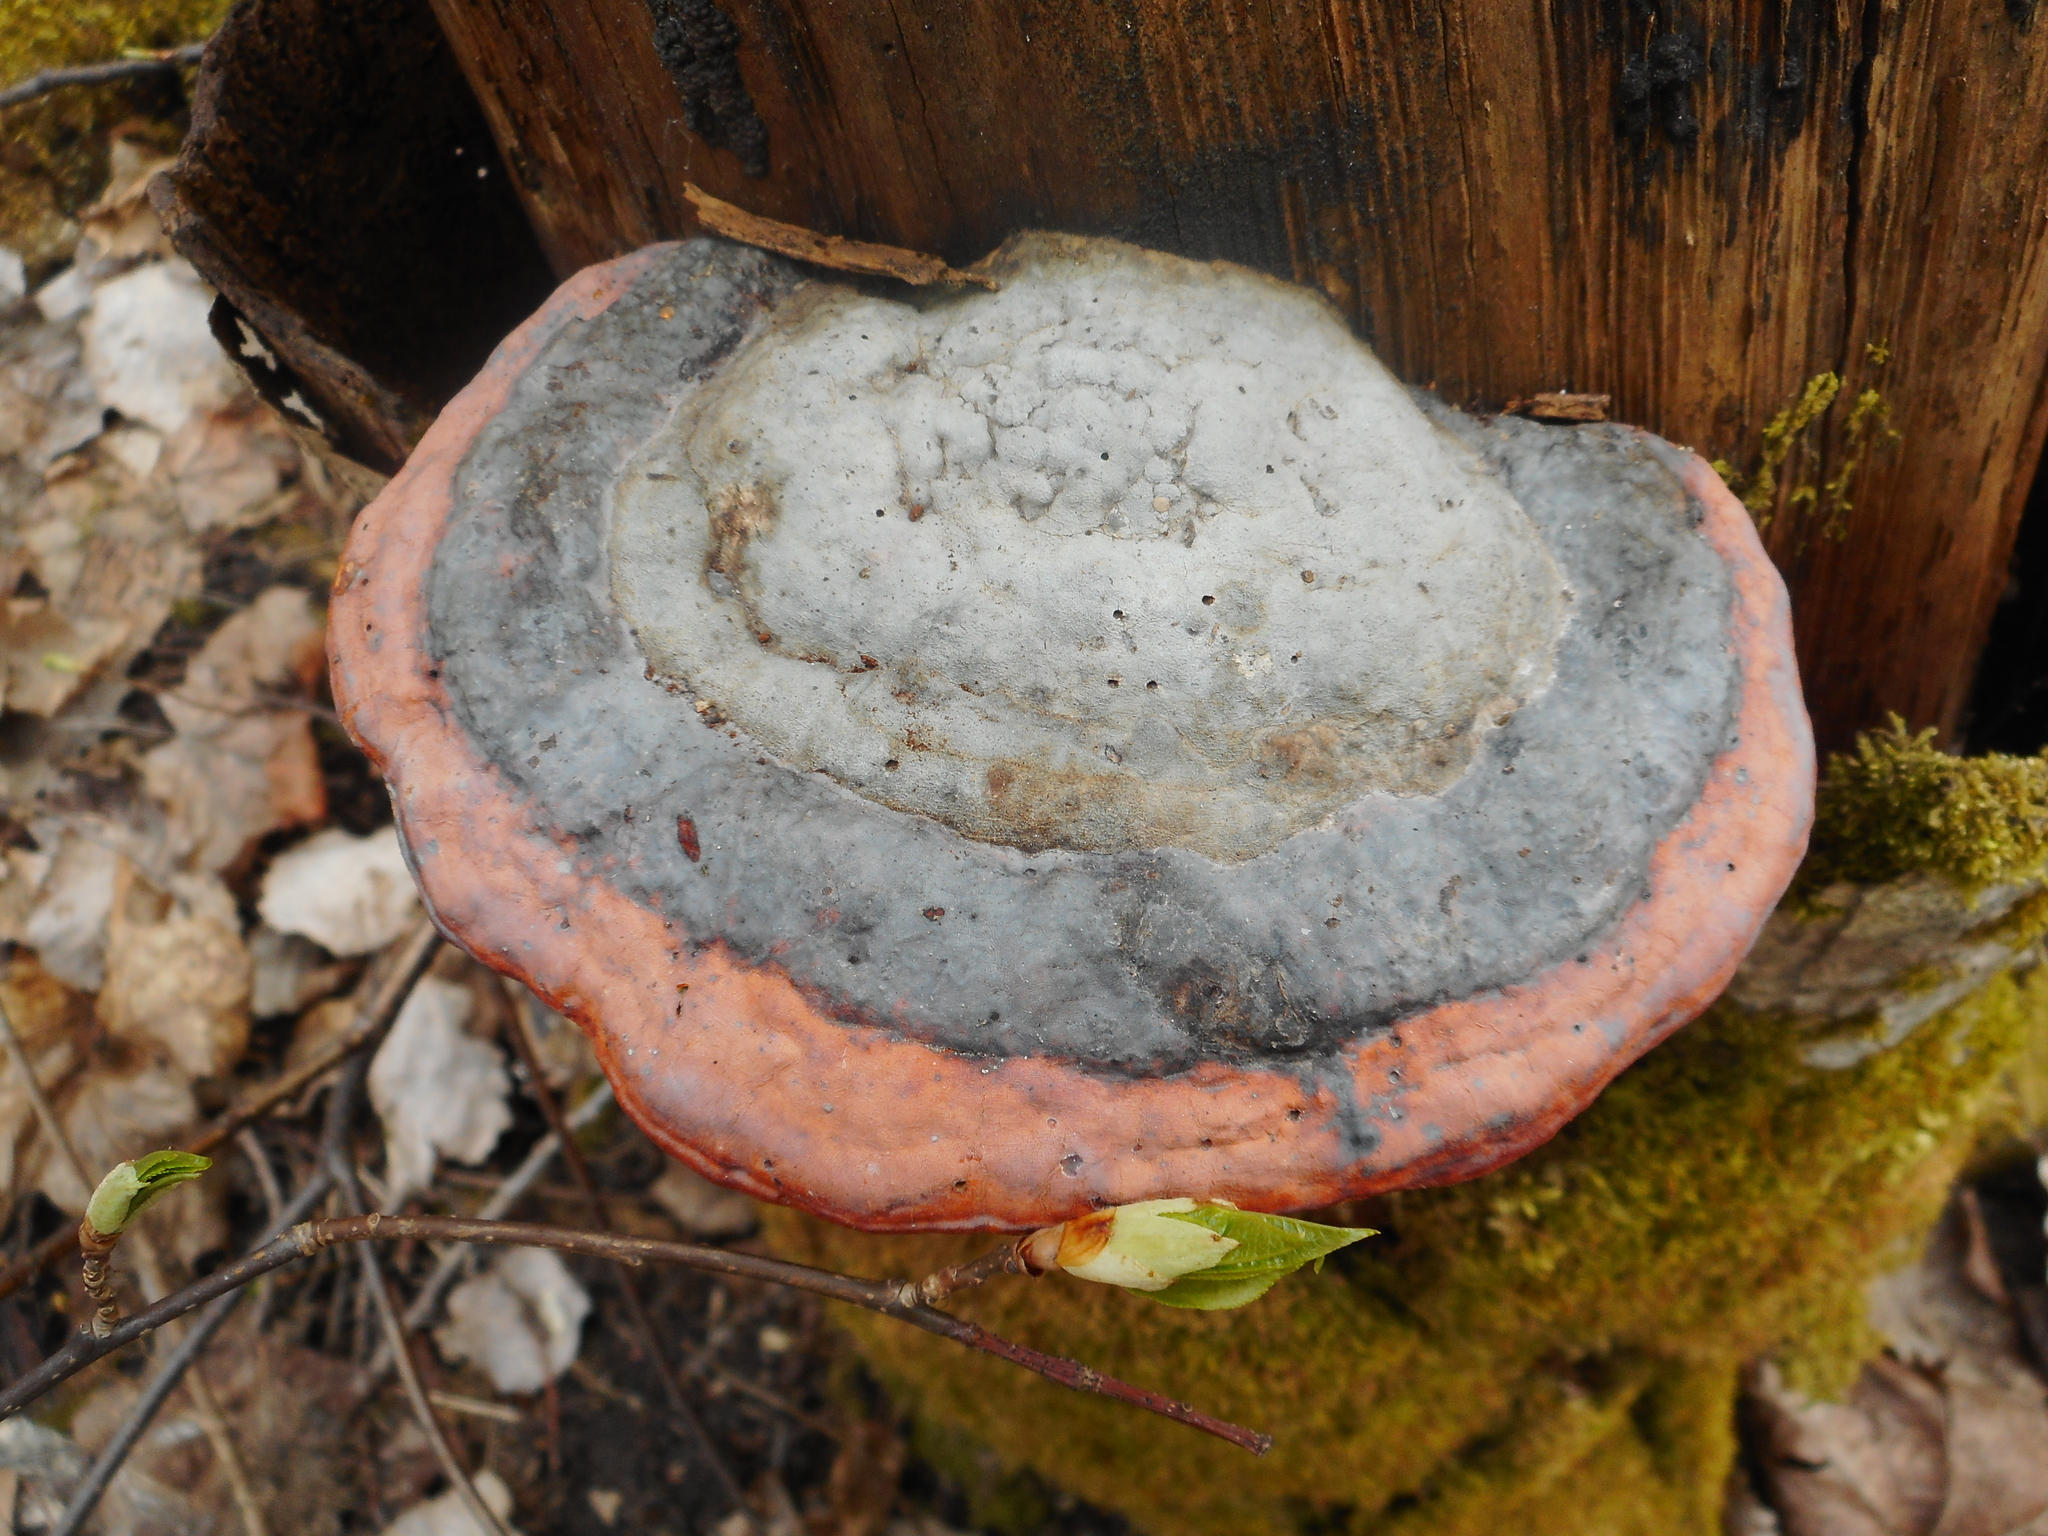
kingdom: Fungi
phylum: Basidiomycota
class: Agaricomycetes
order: Polyporales
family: Fomitopsidaceae
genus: Fomitopsis
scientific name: Fomitopsis pinicola
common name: Red-belted bracket
